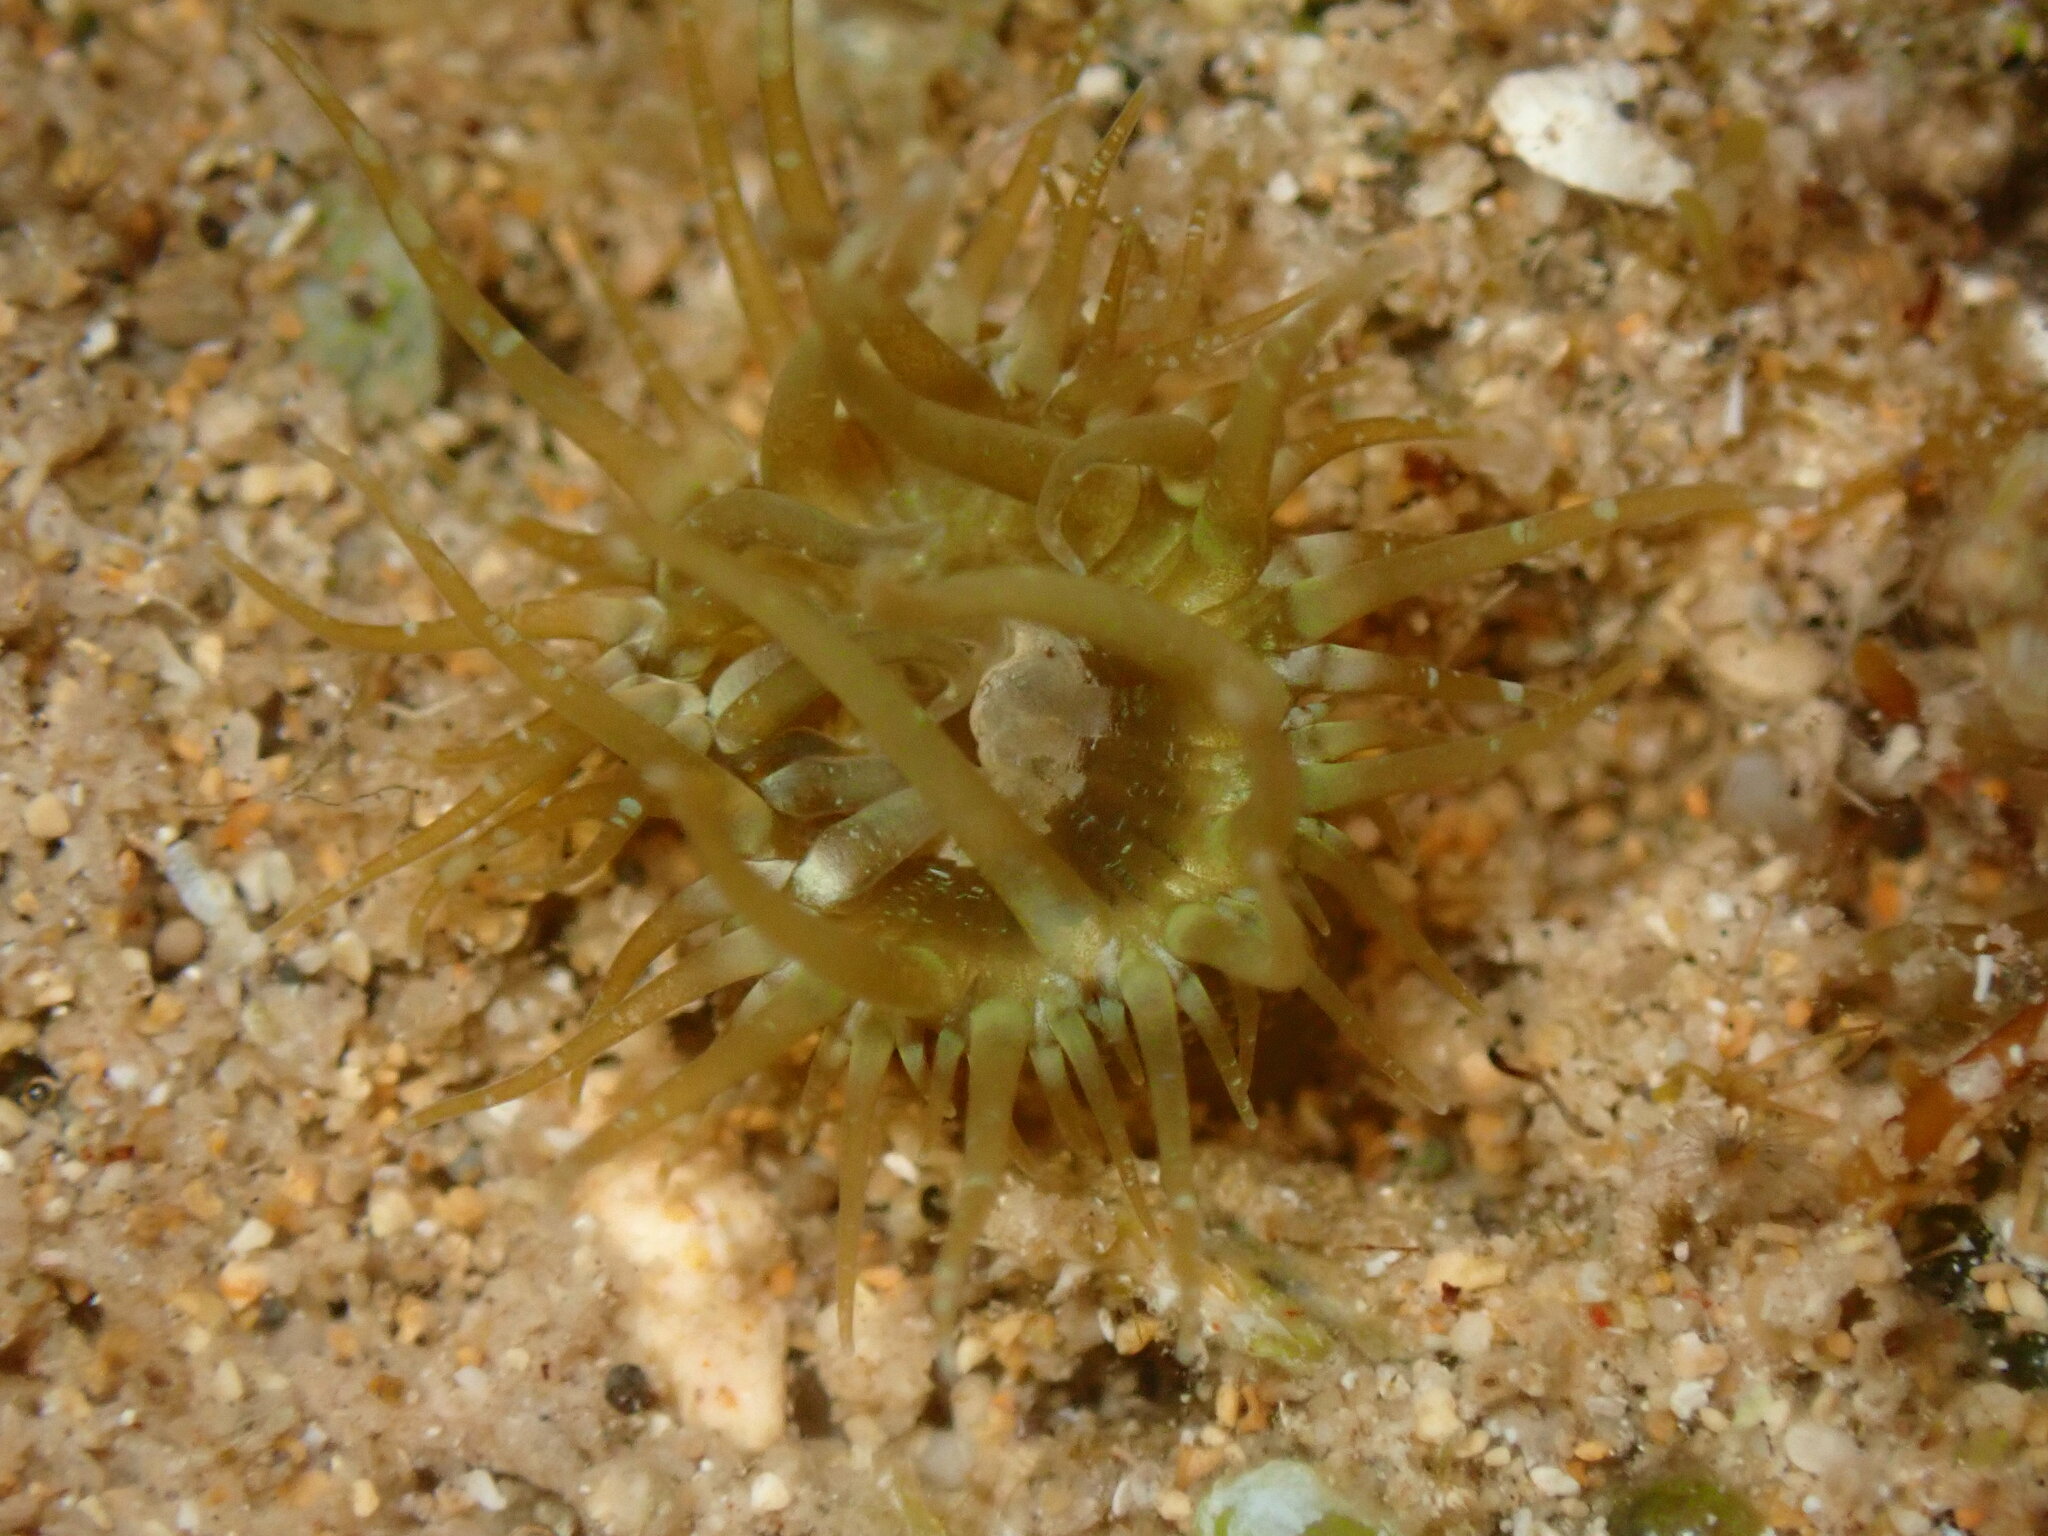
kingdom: Animalia
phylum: Cnidaria
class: Anthozoa
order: Actiniaria
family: Aiptasiidae
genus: Exaiptasia
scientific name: Exaiptasia diaphana
